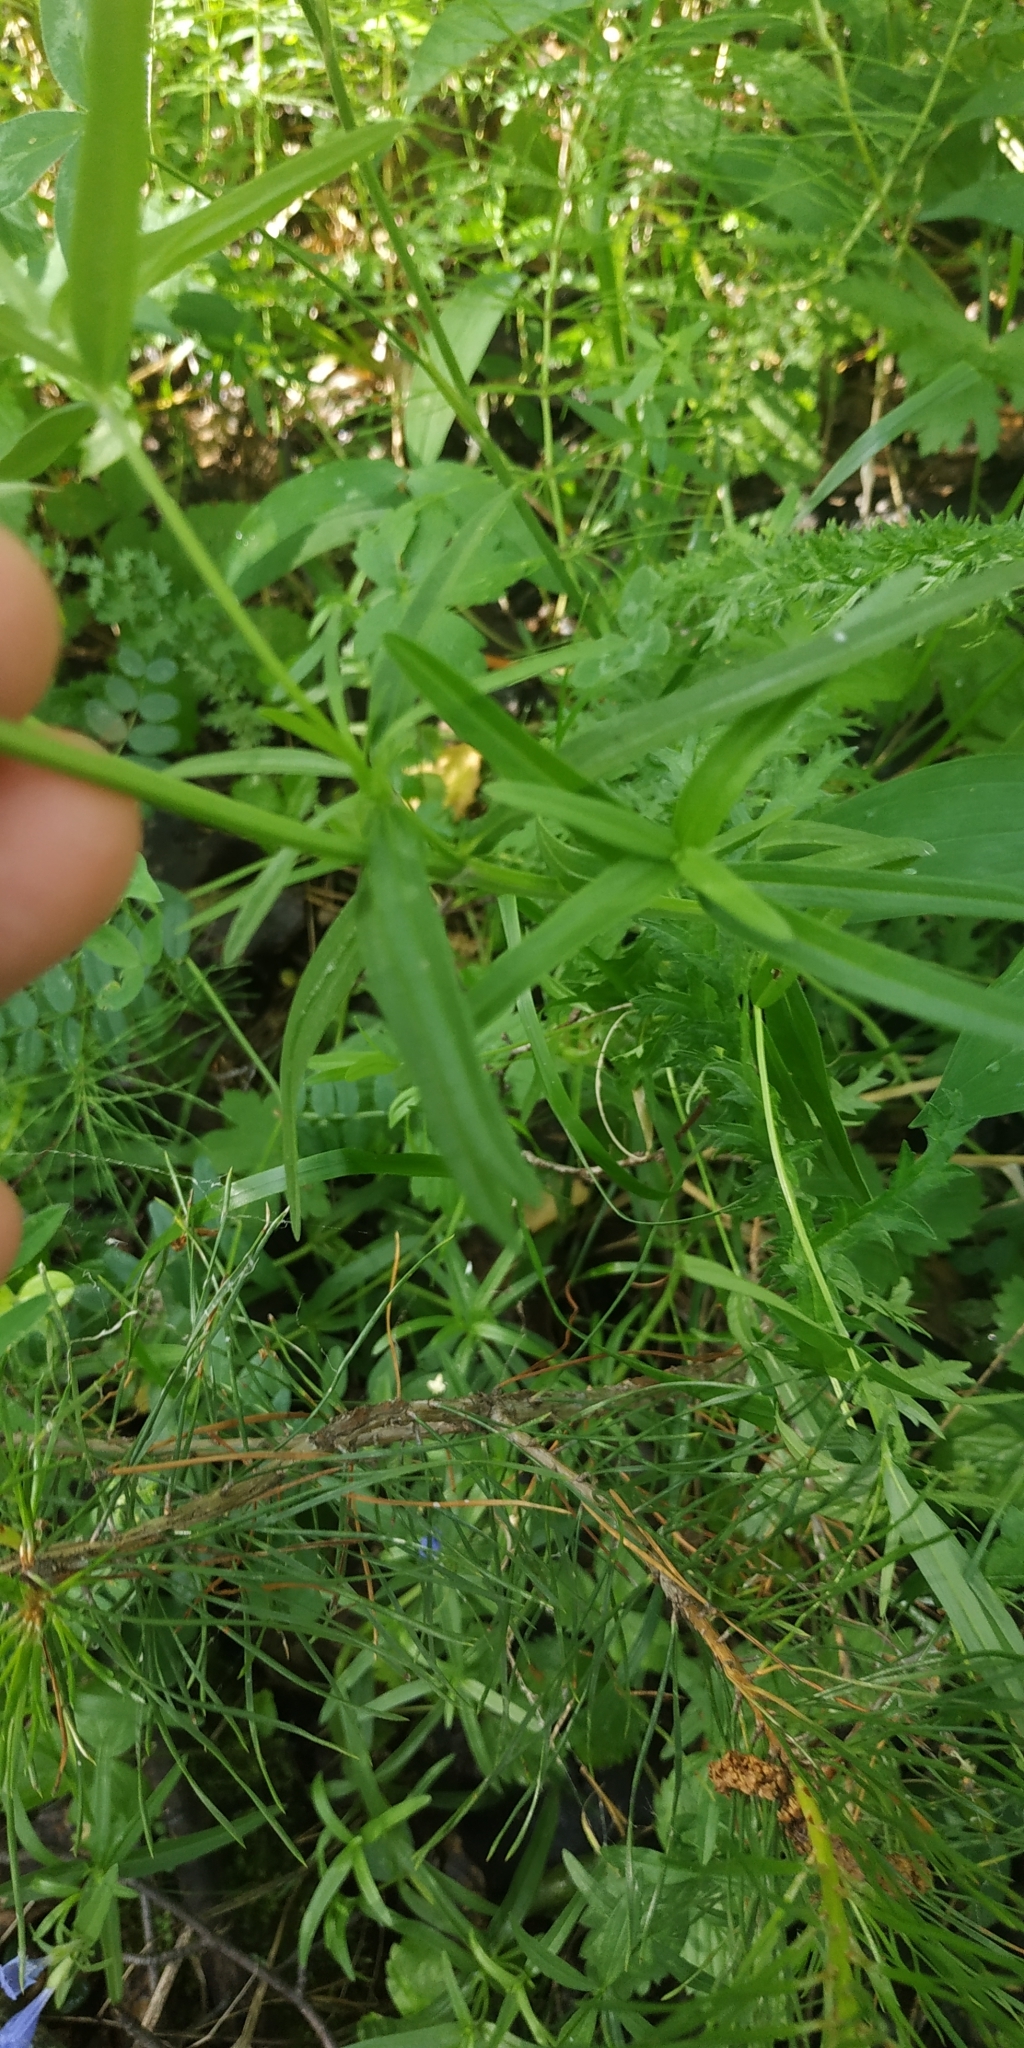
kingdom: Plantae
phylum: Tracheophyta
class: Magnoliopsida
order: Lamiales
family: Lamiaceae
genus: Dracocephalum
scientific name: Dracocephalum ruyschiana
